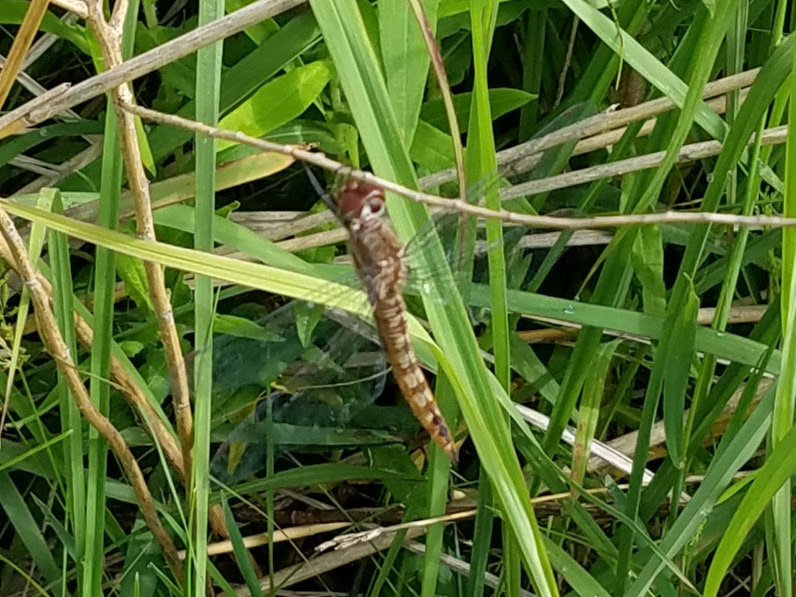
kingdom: Animalia
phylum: Arthropoda
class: Insecta
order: Odonata
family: Libellulidae
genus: Pantala
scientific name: Pantala flavescens
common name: Wandering glider
